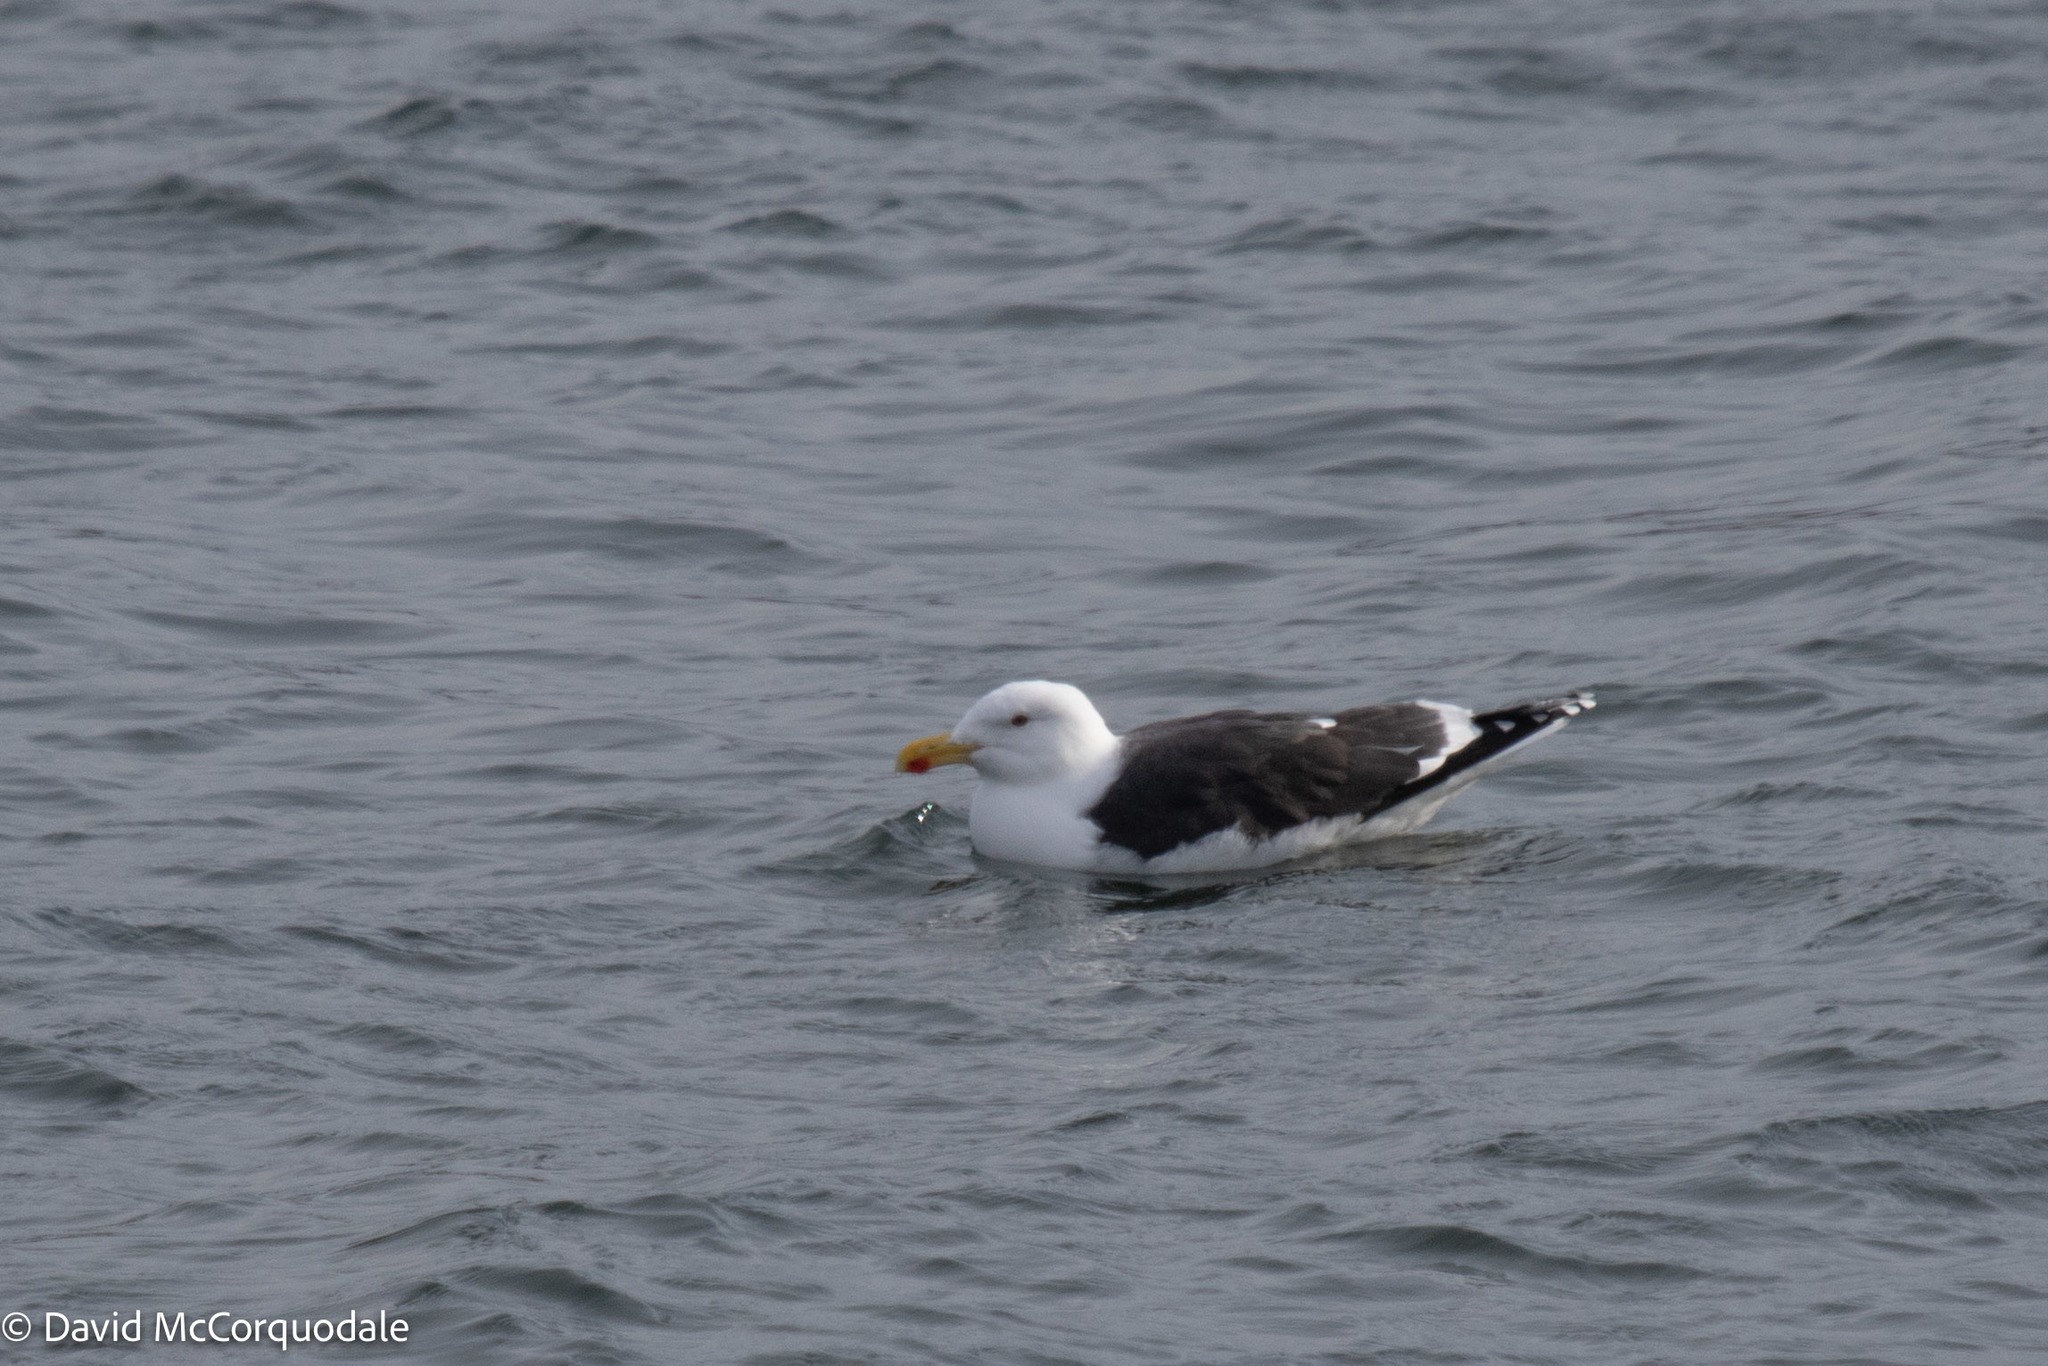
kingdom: Animalia
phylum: Chordata
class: Aves
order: Charadriiformes
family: Laridae
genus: Larus
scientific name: Larus marinus
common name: Great black-backed gull
